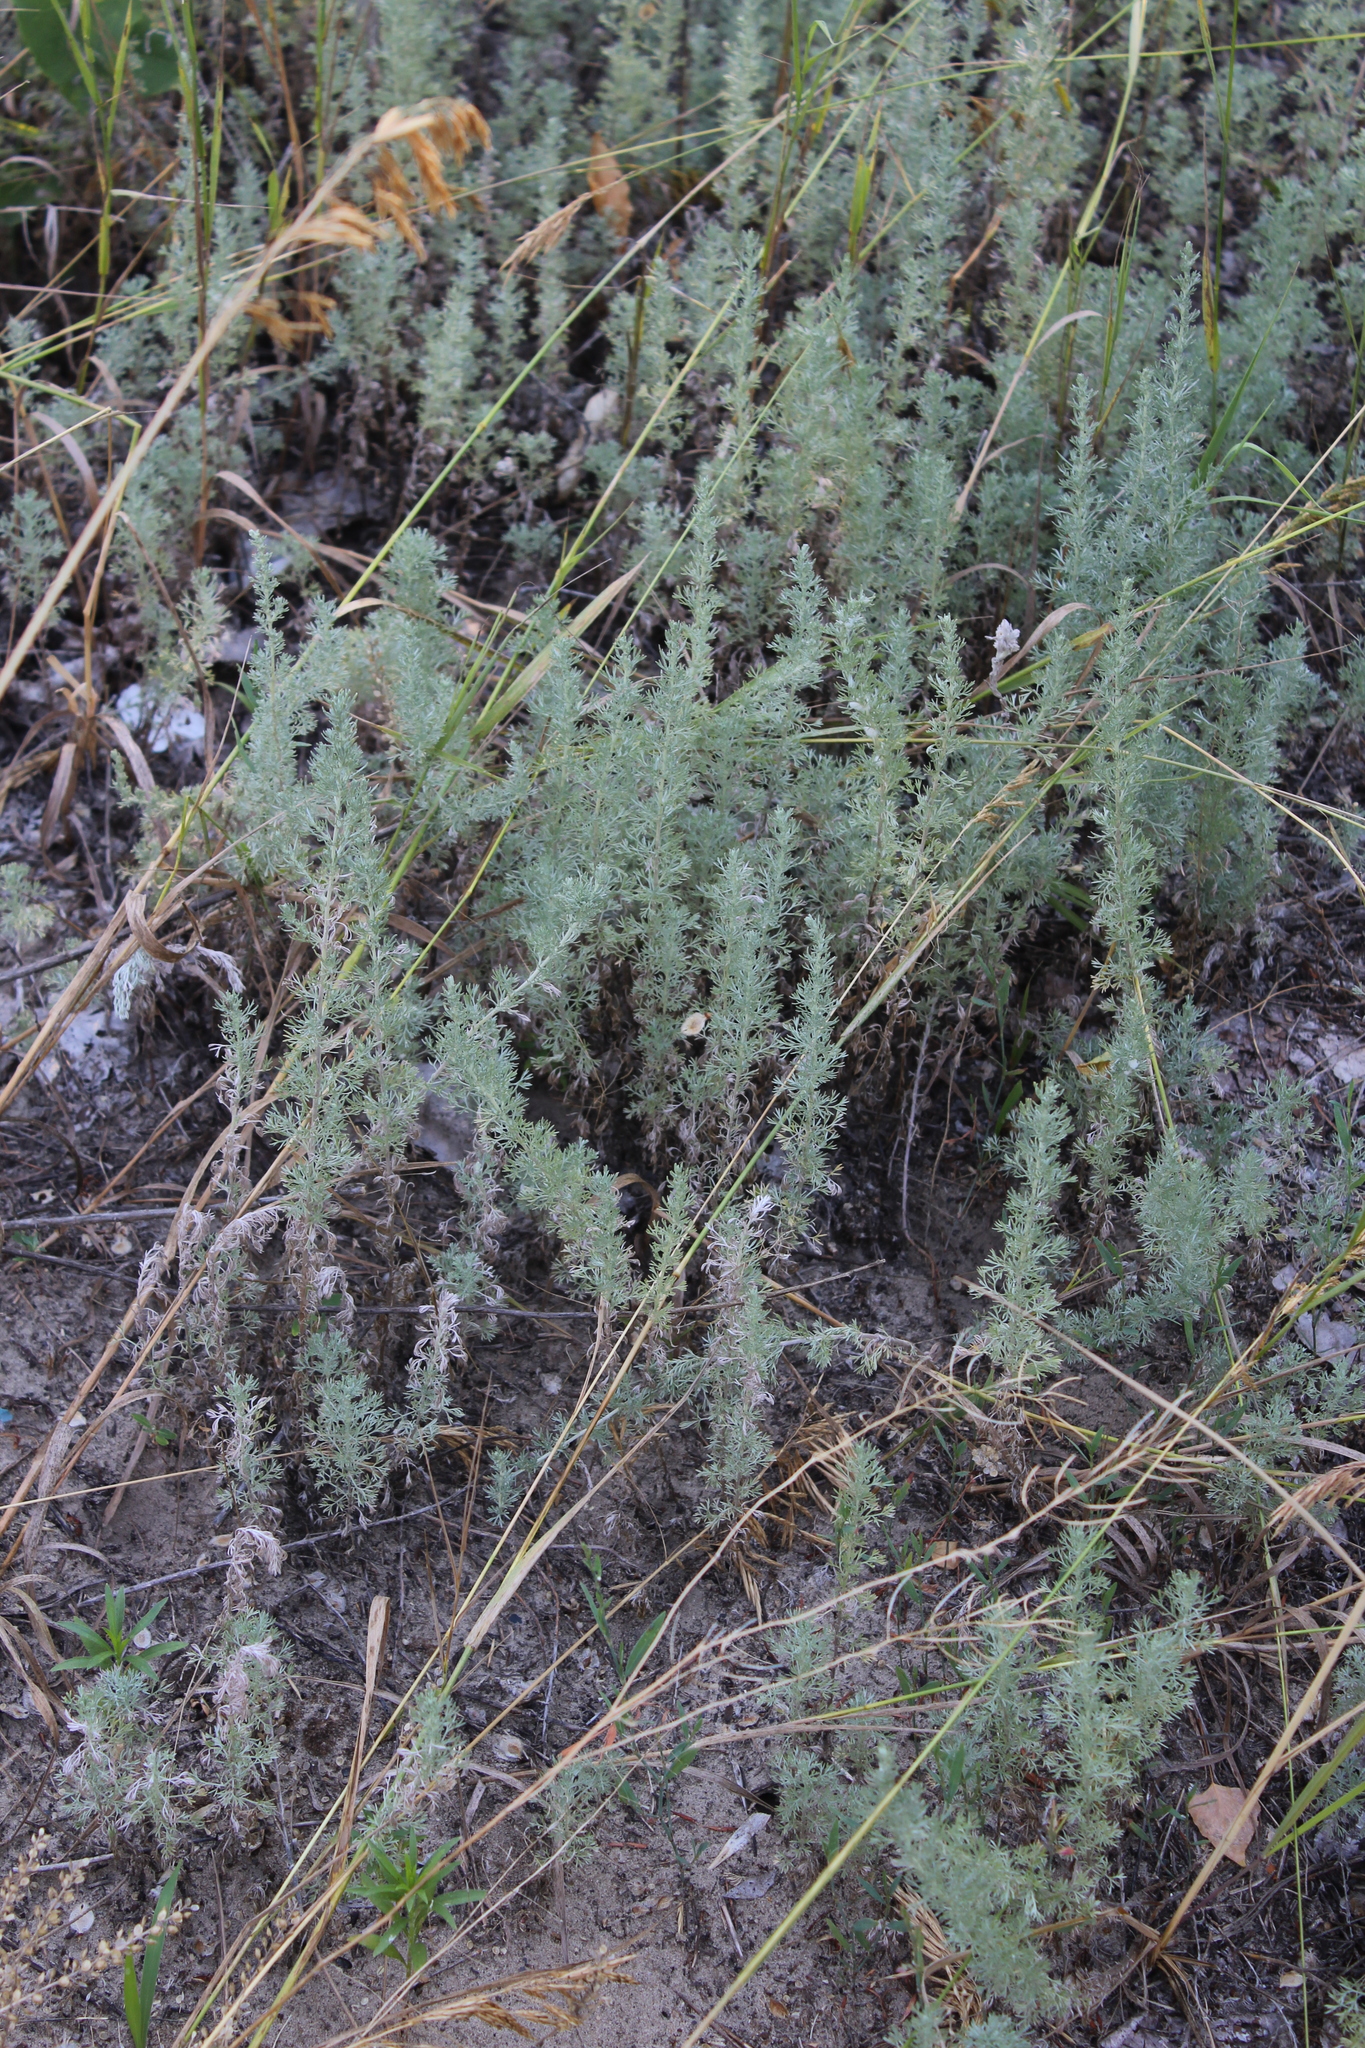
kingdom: Plantae
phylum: Tracheophyta
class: Magnoliopsida
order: Asterales
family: Asteraceae
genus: Artemisia
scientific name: Artemisia austriaca
